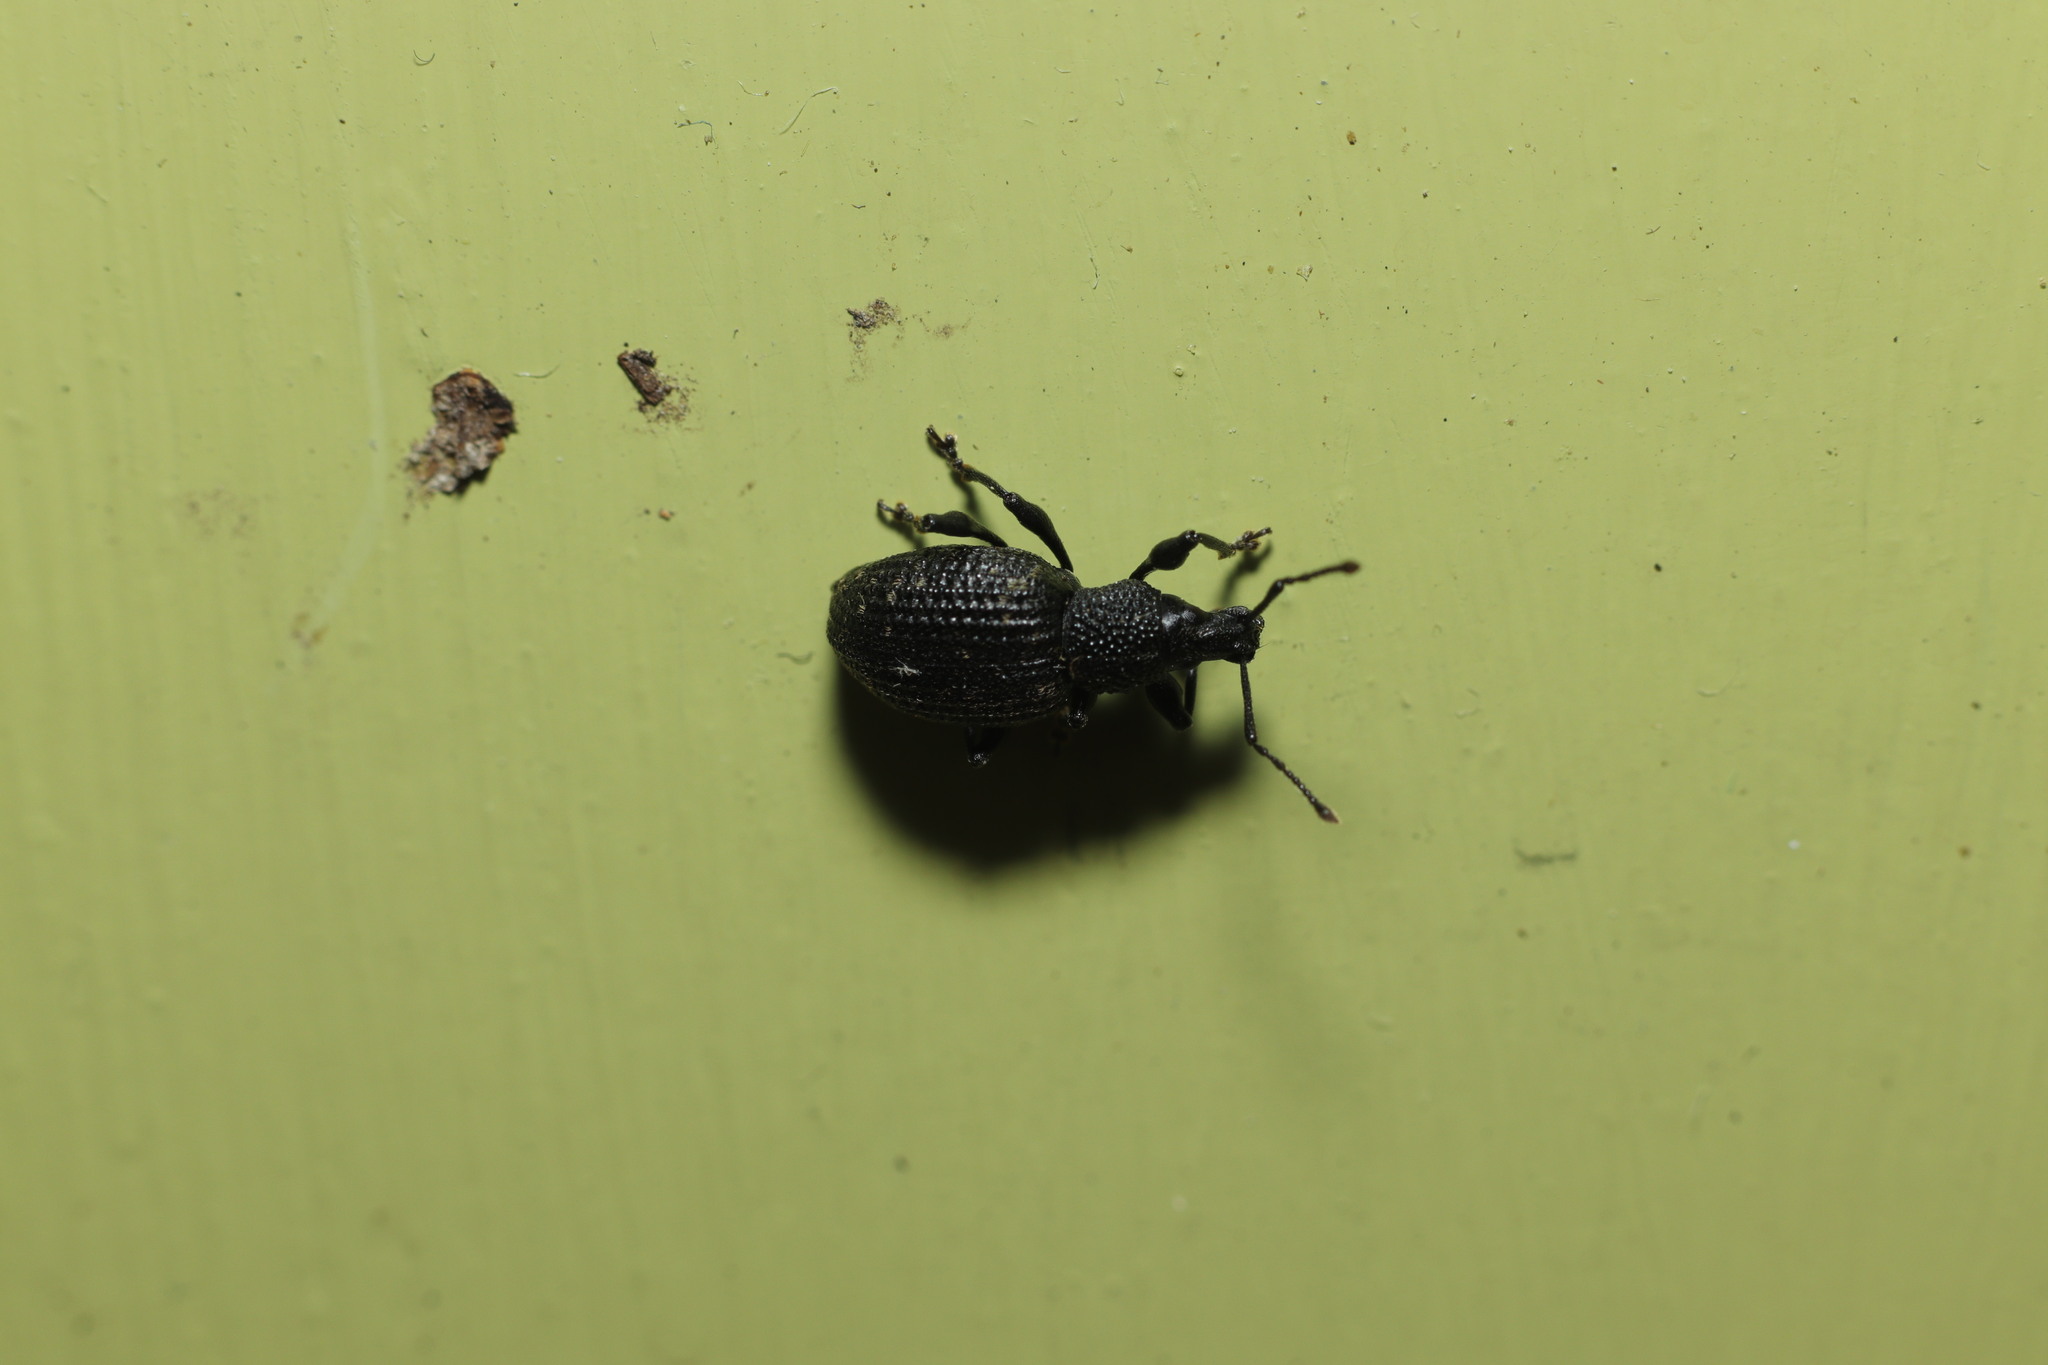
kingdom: Animalia
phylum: Arthropoda
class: Insecta
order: Coleoptera
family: Curculionidae
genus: Otiorhynchus
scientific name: Otiorhynchus sulcatus
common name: Black vine weevil
